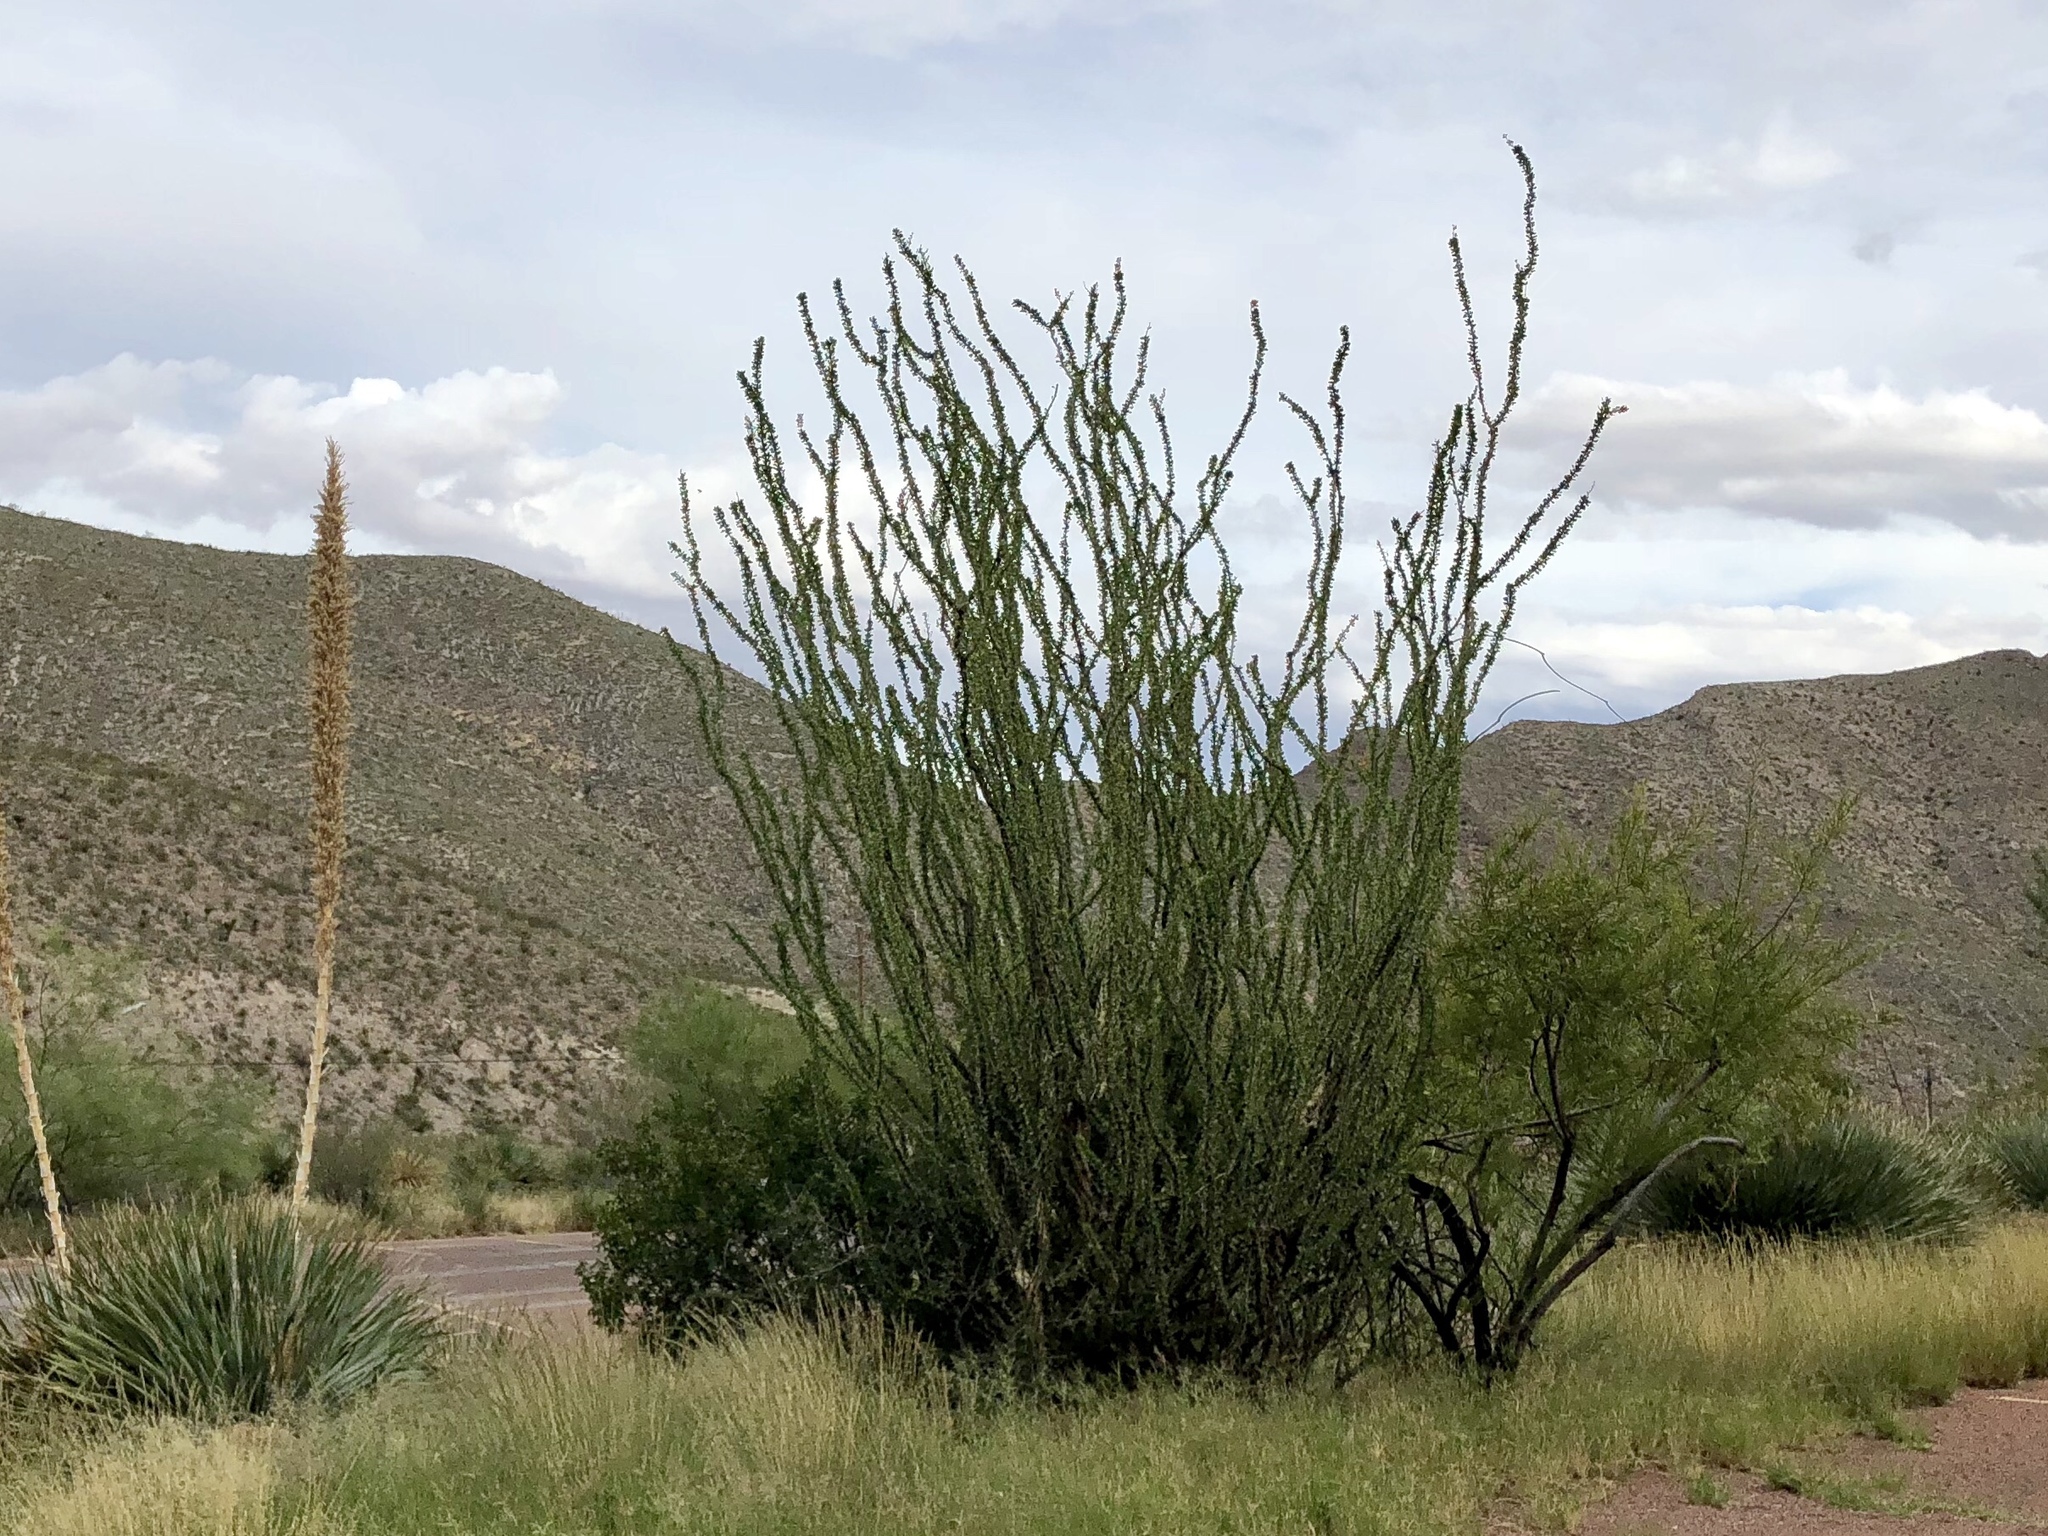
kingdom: Plantae
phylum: Tracheophyta
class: Magnoliopsida
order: Ericales
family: Fouquieriaceae
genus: Fouquieria
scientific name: Fouquieria splendens
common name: Vine-cactus
